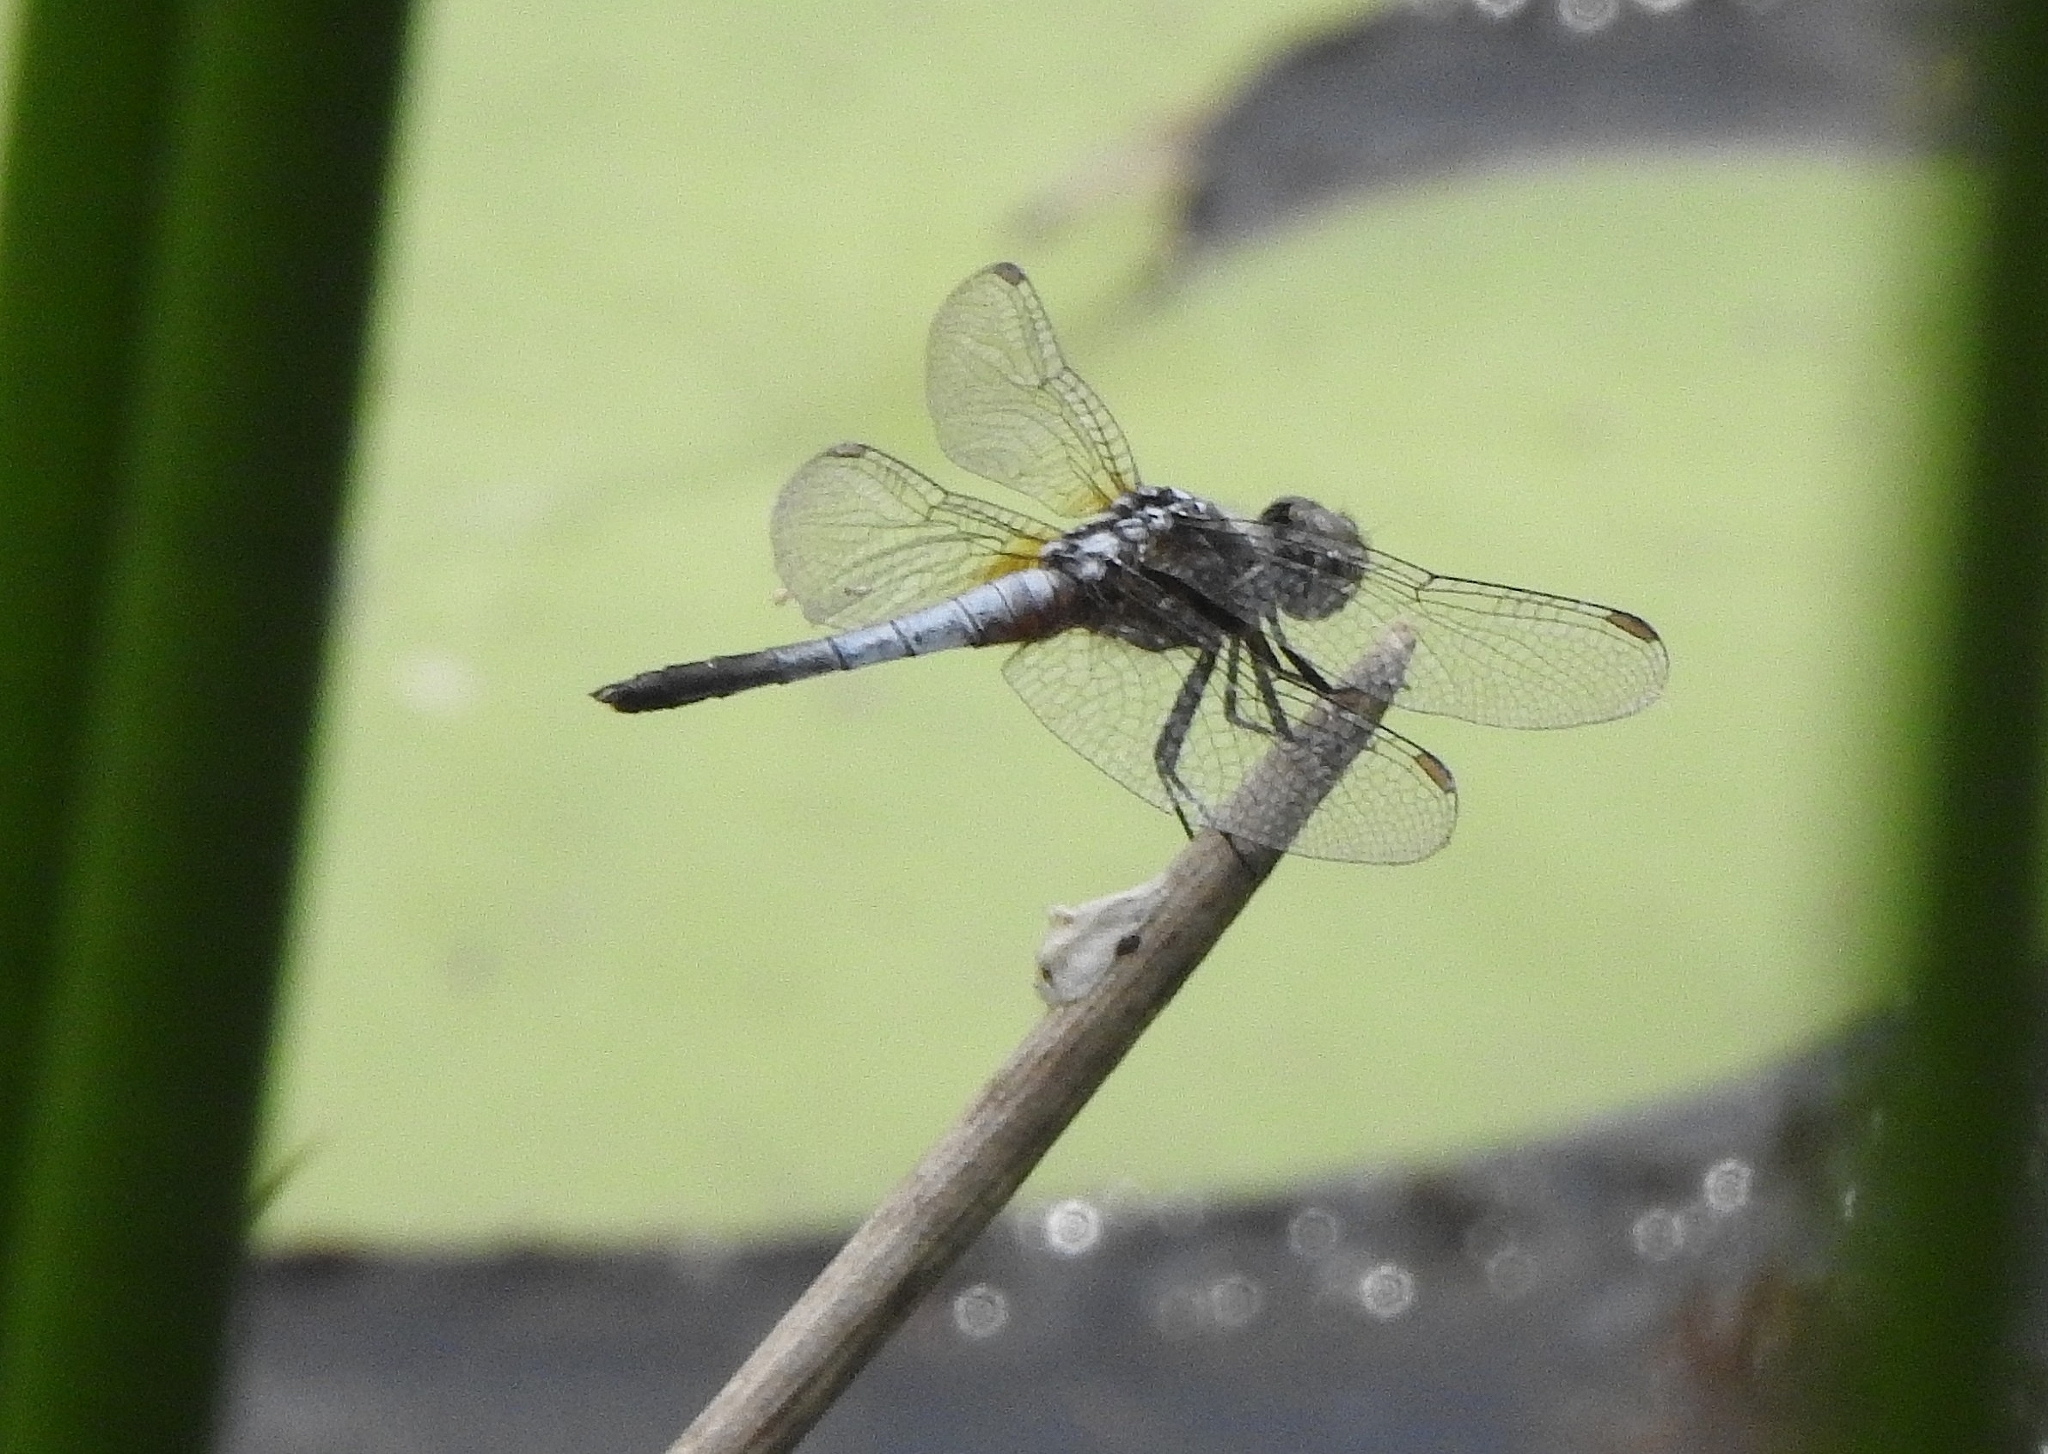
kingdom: Animalia
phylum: Arthropoda
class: Insecta
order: Odonata
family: Libellulidae
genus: Brachydiplax
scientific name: Brachydiplax chalybea
